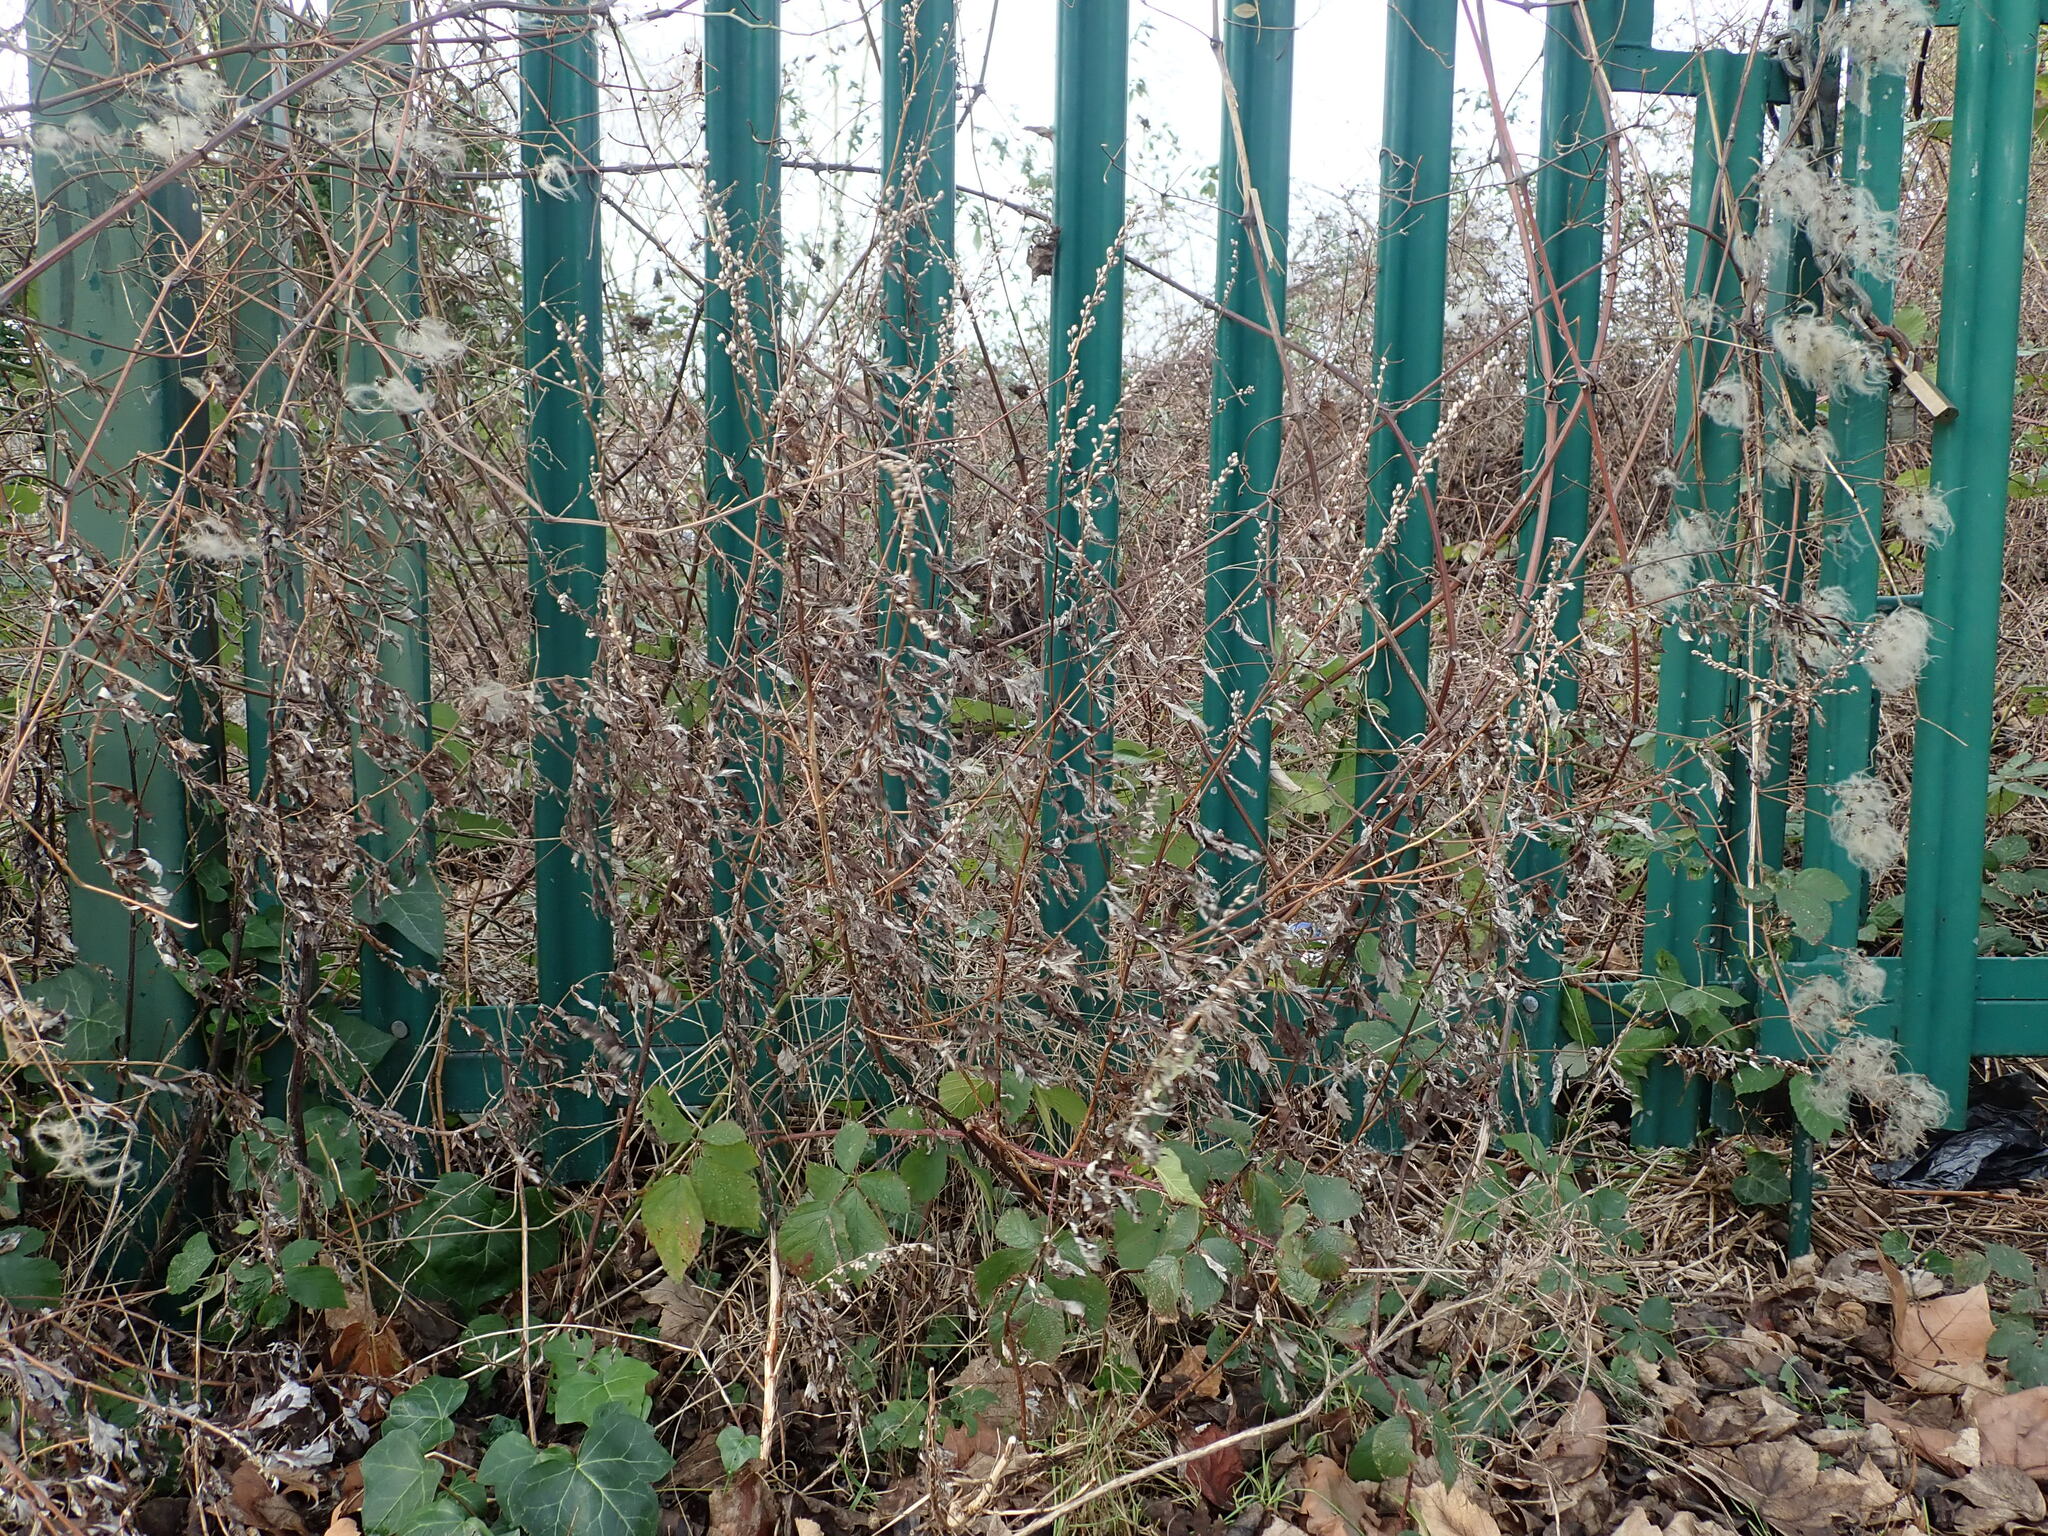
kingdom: Plantae
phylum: Tracheophyta
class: Magnoliopsida
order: Asterales
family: Asteraceae
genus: Artemisia
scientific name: Artemisia vulgaris
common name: Mugwort
